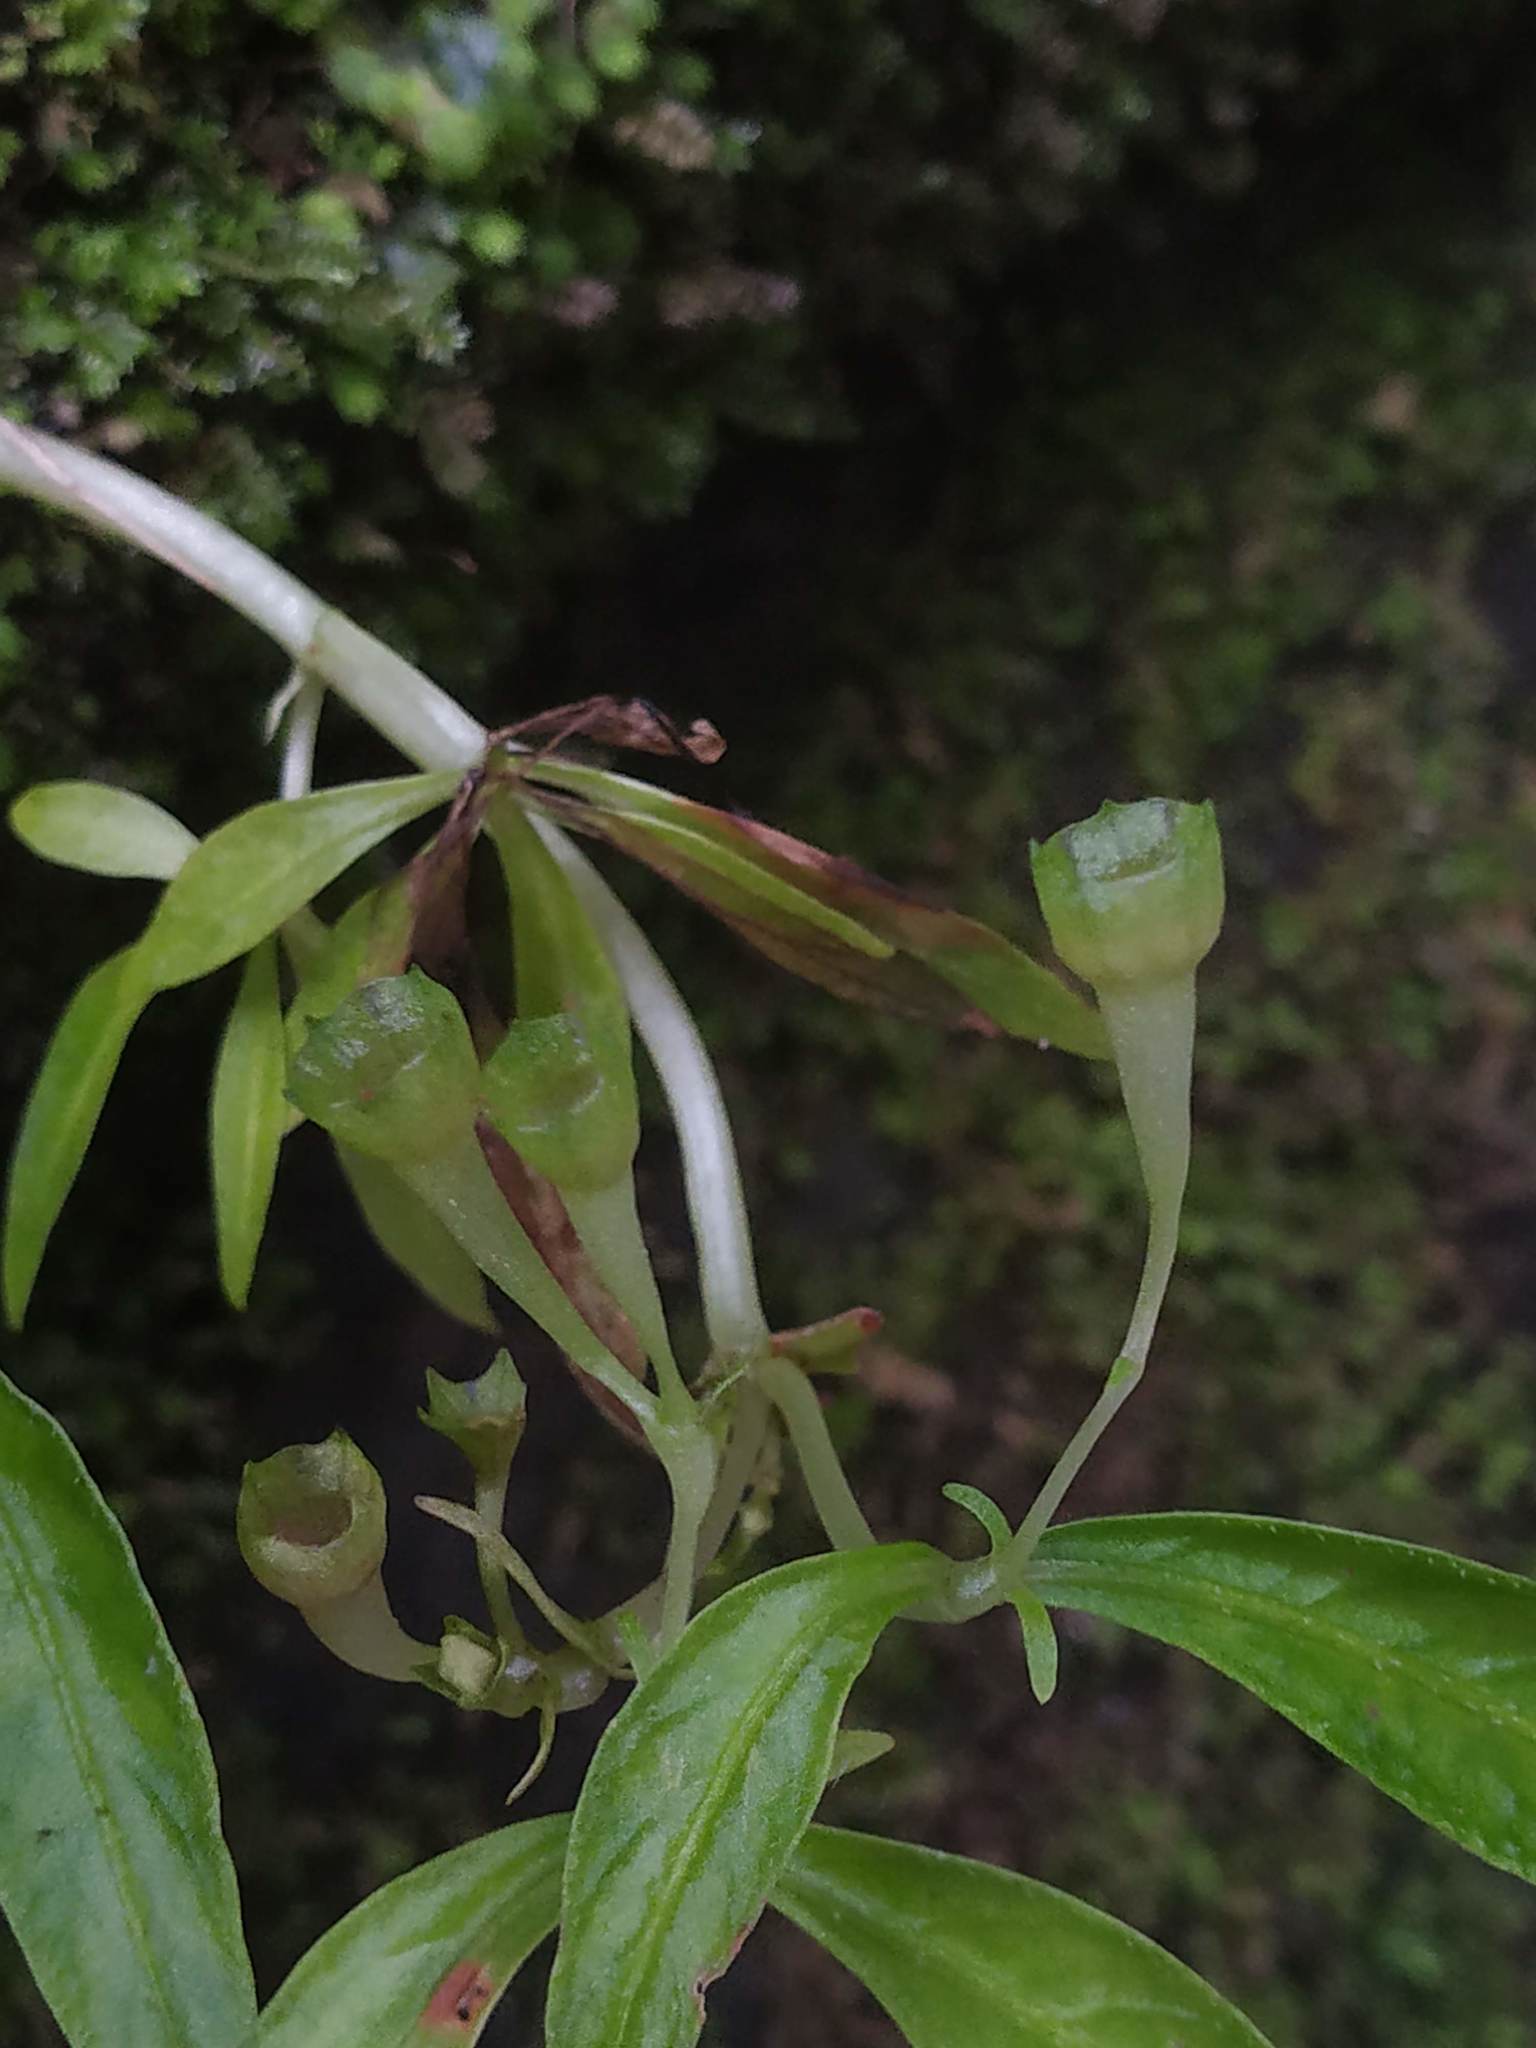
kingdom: Plantae
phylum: Tracheophyta
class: Magnoliopsida
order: Gentianales
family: Rubiaceae
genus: Argostemma
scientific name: Argostemma verticillatum
